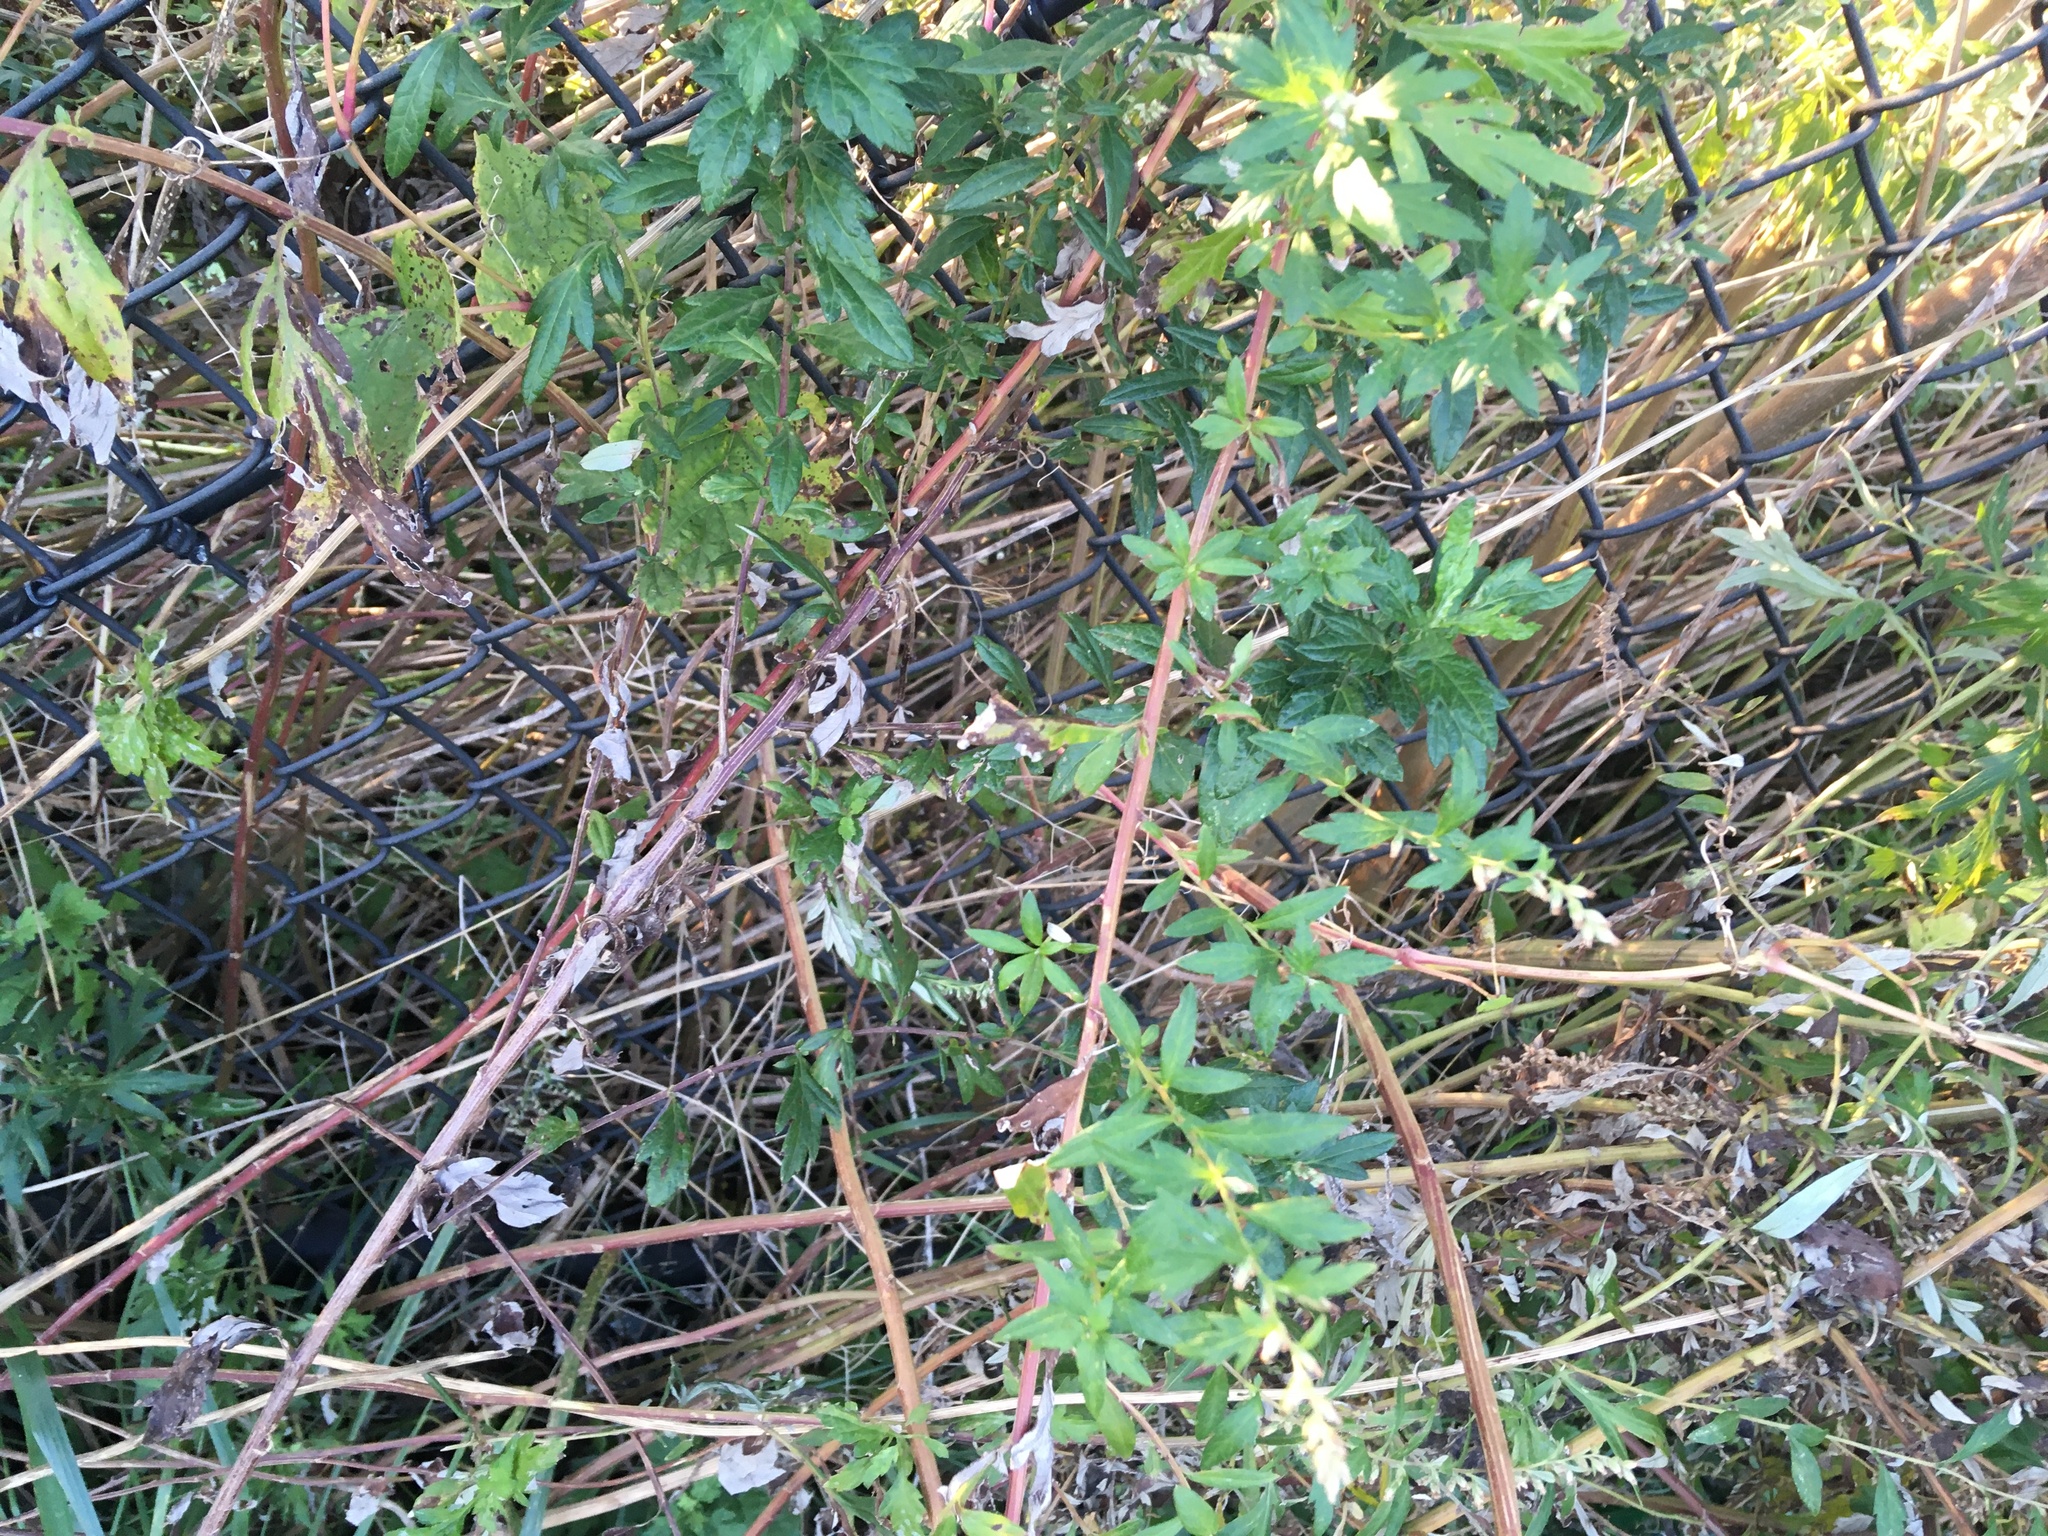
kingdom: Plantae
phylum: Tracheophyta
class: Magnoliopsida
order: Asterales
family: Asteraceae
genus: Artemisia
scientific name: Artemisia vulgaris
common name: Mugwort
